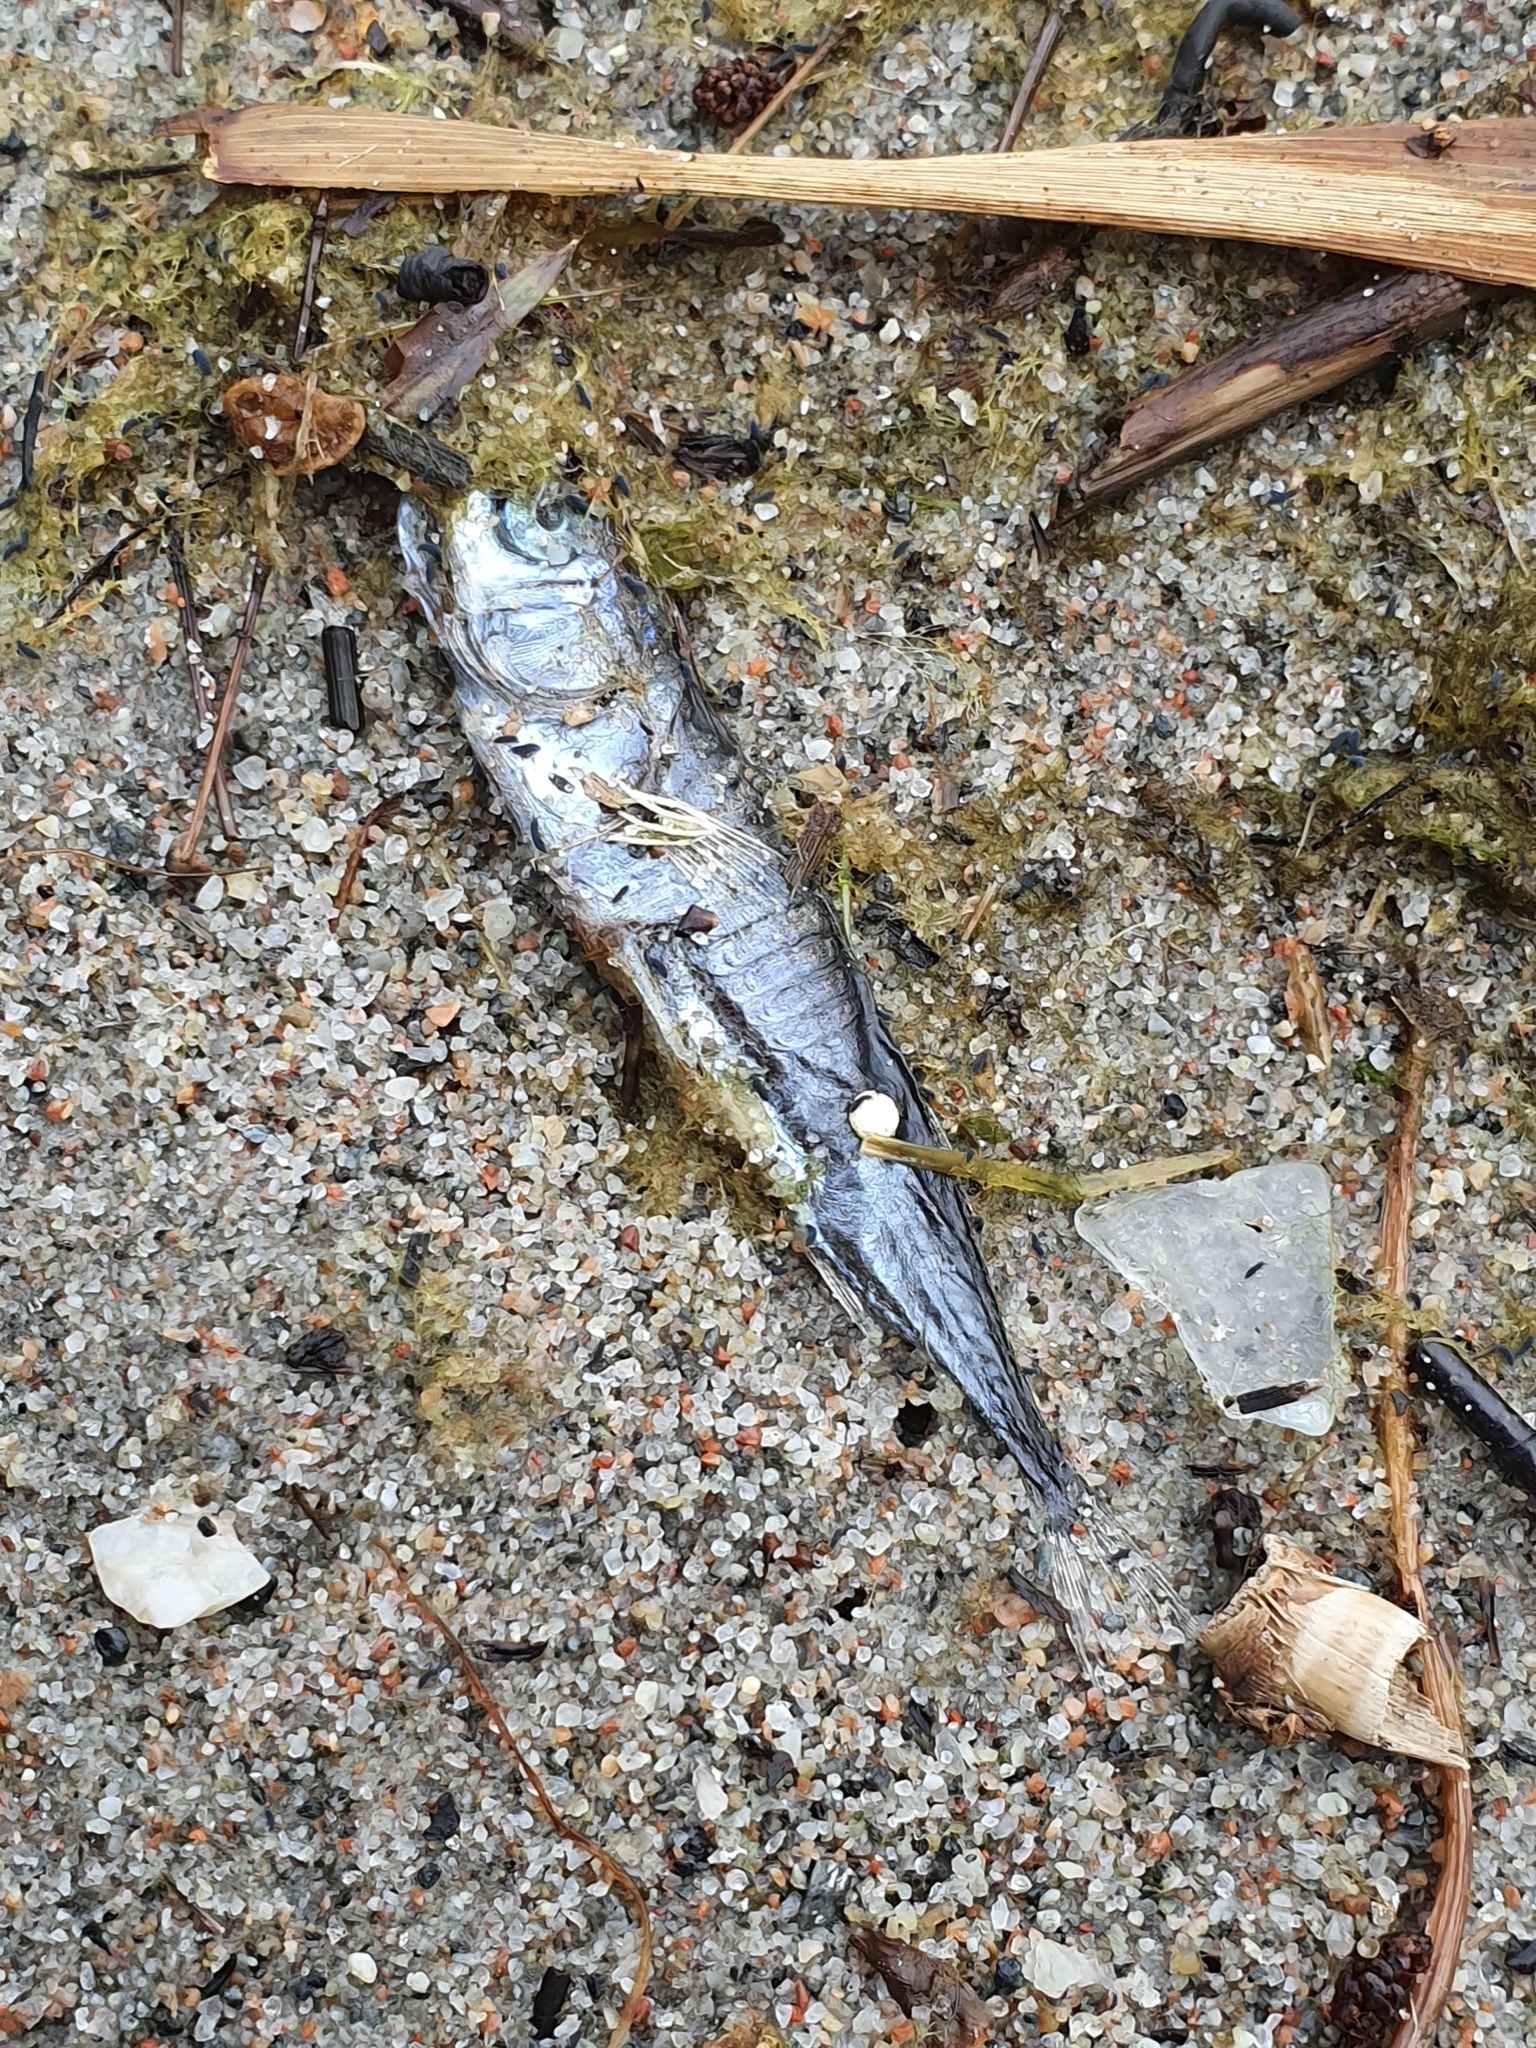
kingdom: Animalia
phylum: Chordata
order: Gasterosteiformes
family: Gasterosteidae
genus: Gasterosteus
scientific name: Gasterosteus aculeatus
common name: Three-spined stickleback
